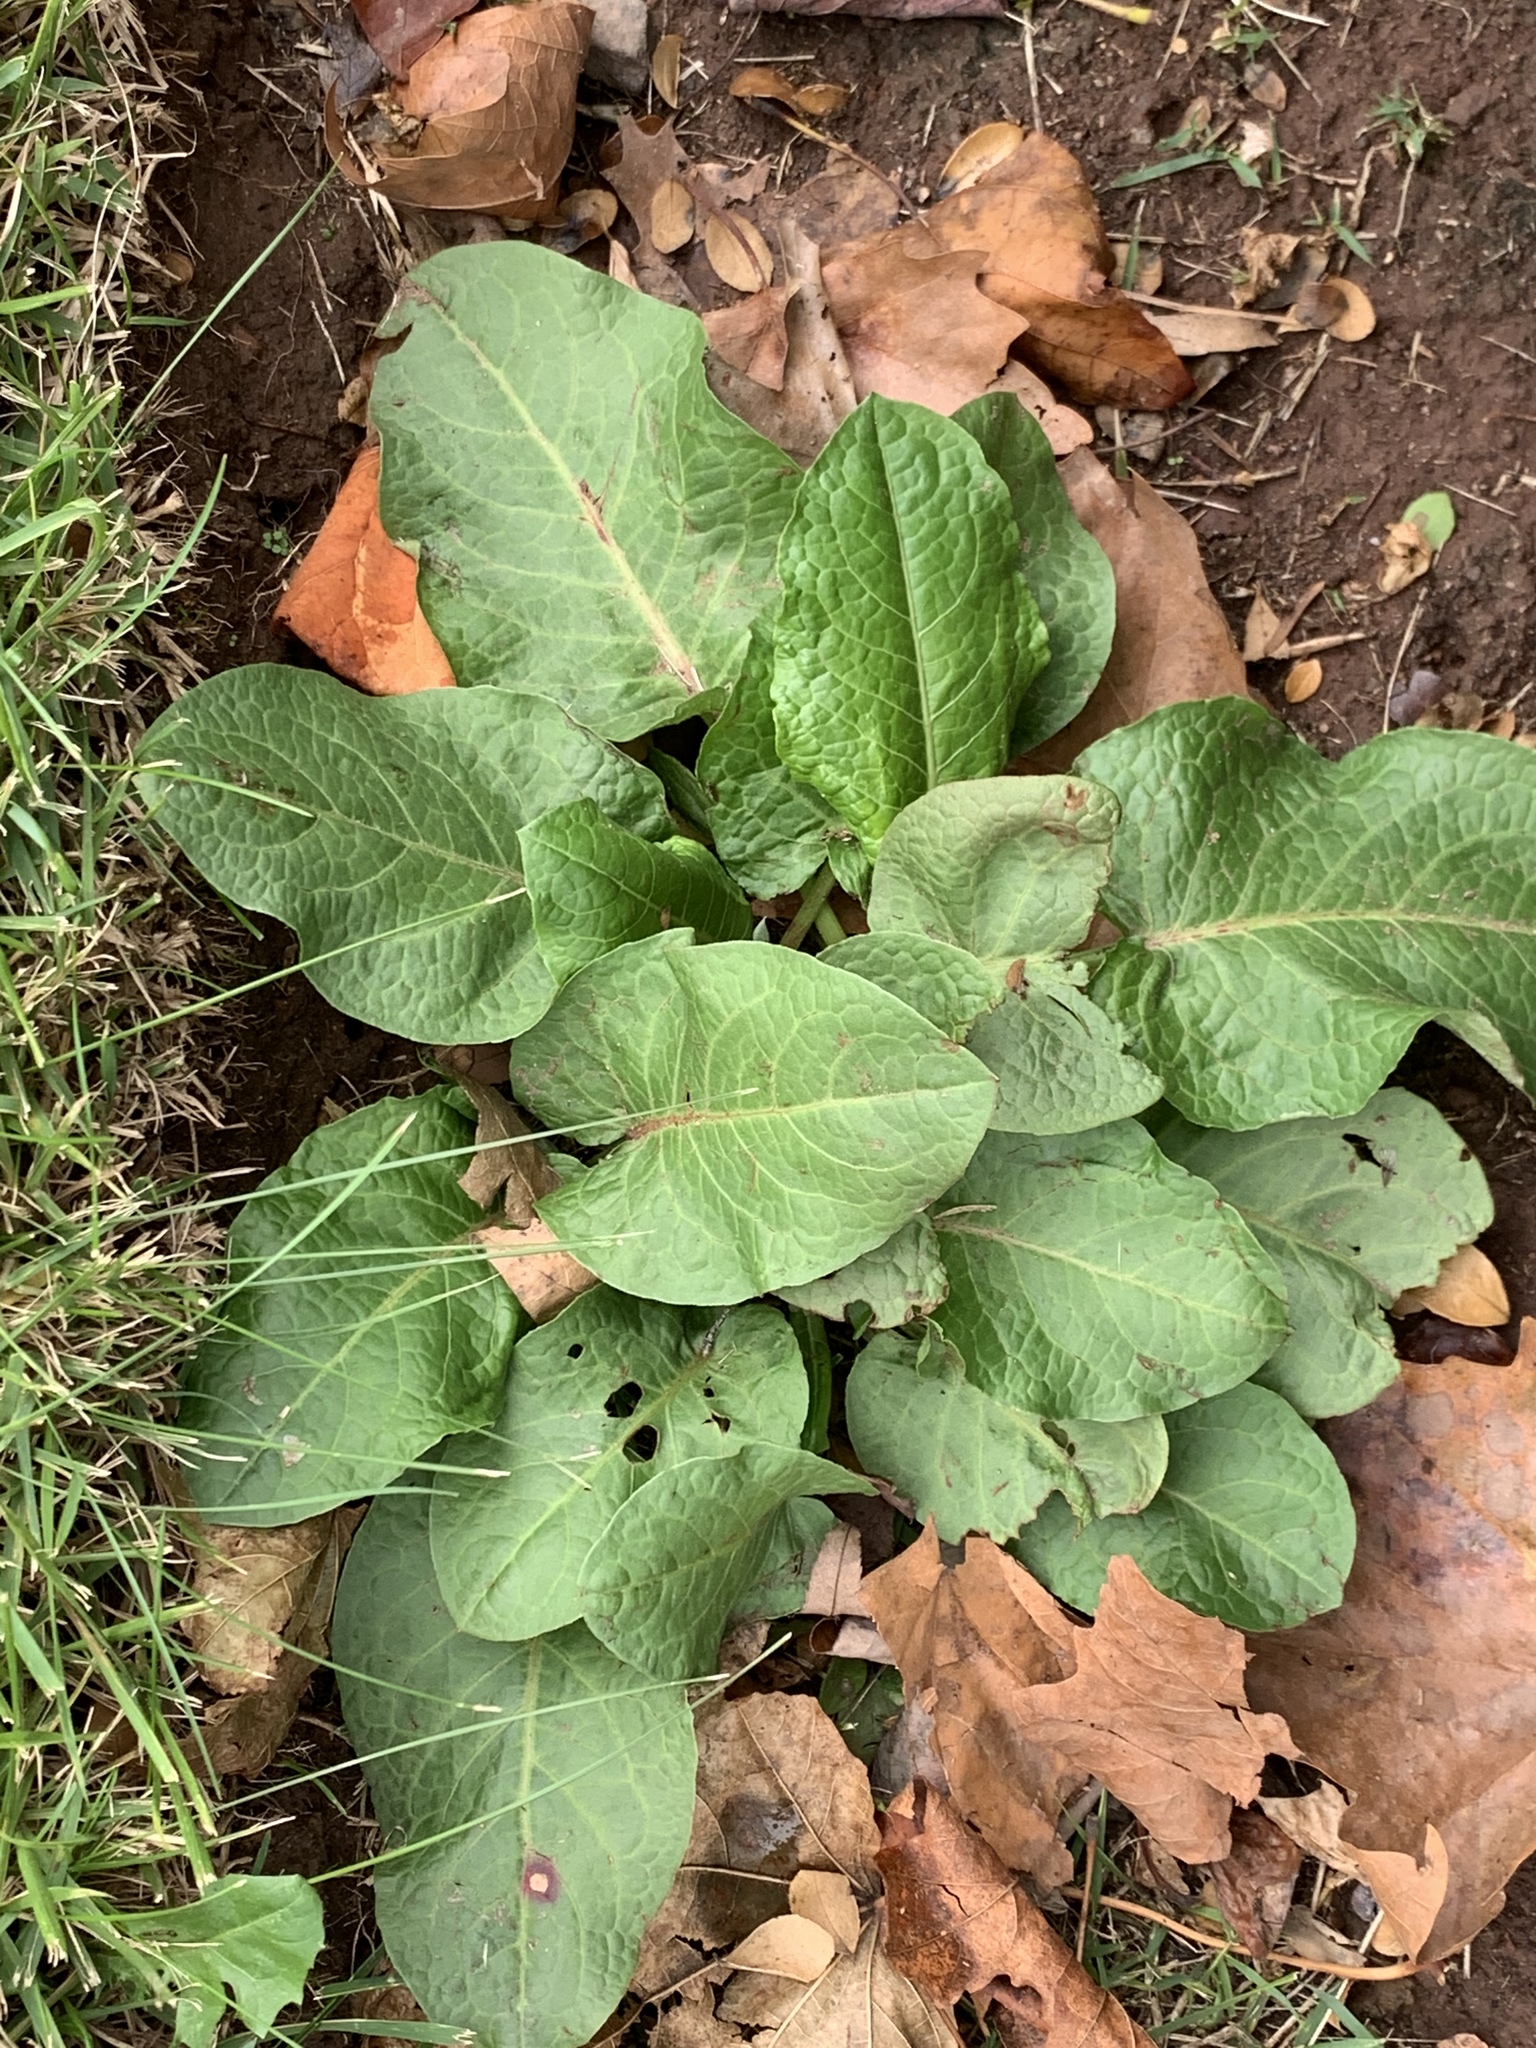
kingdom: Plantae
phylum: Tracheophyta
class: Magnoliopsida
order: Caryophyllales
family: Polygonaceae
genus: Rumex
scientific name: Rumex obtusifolius
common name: Bitter dock
